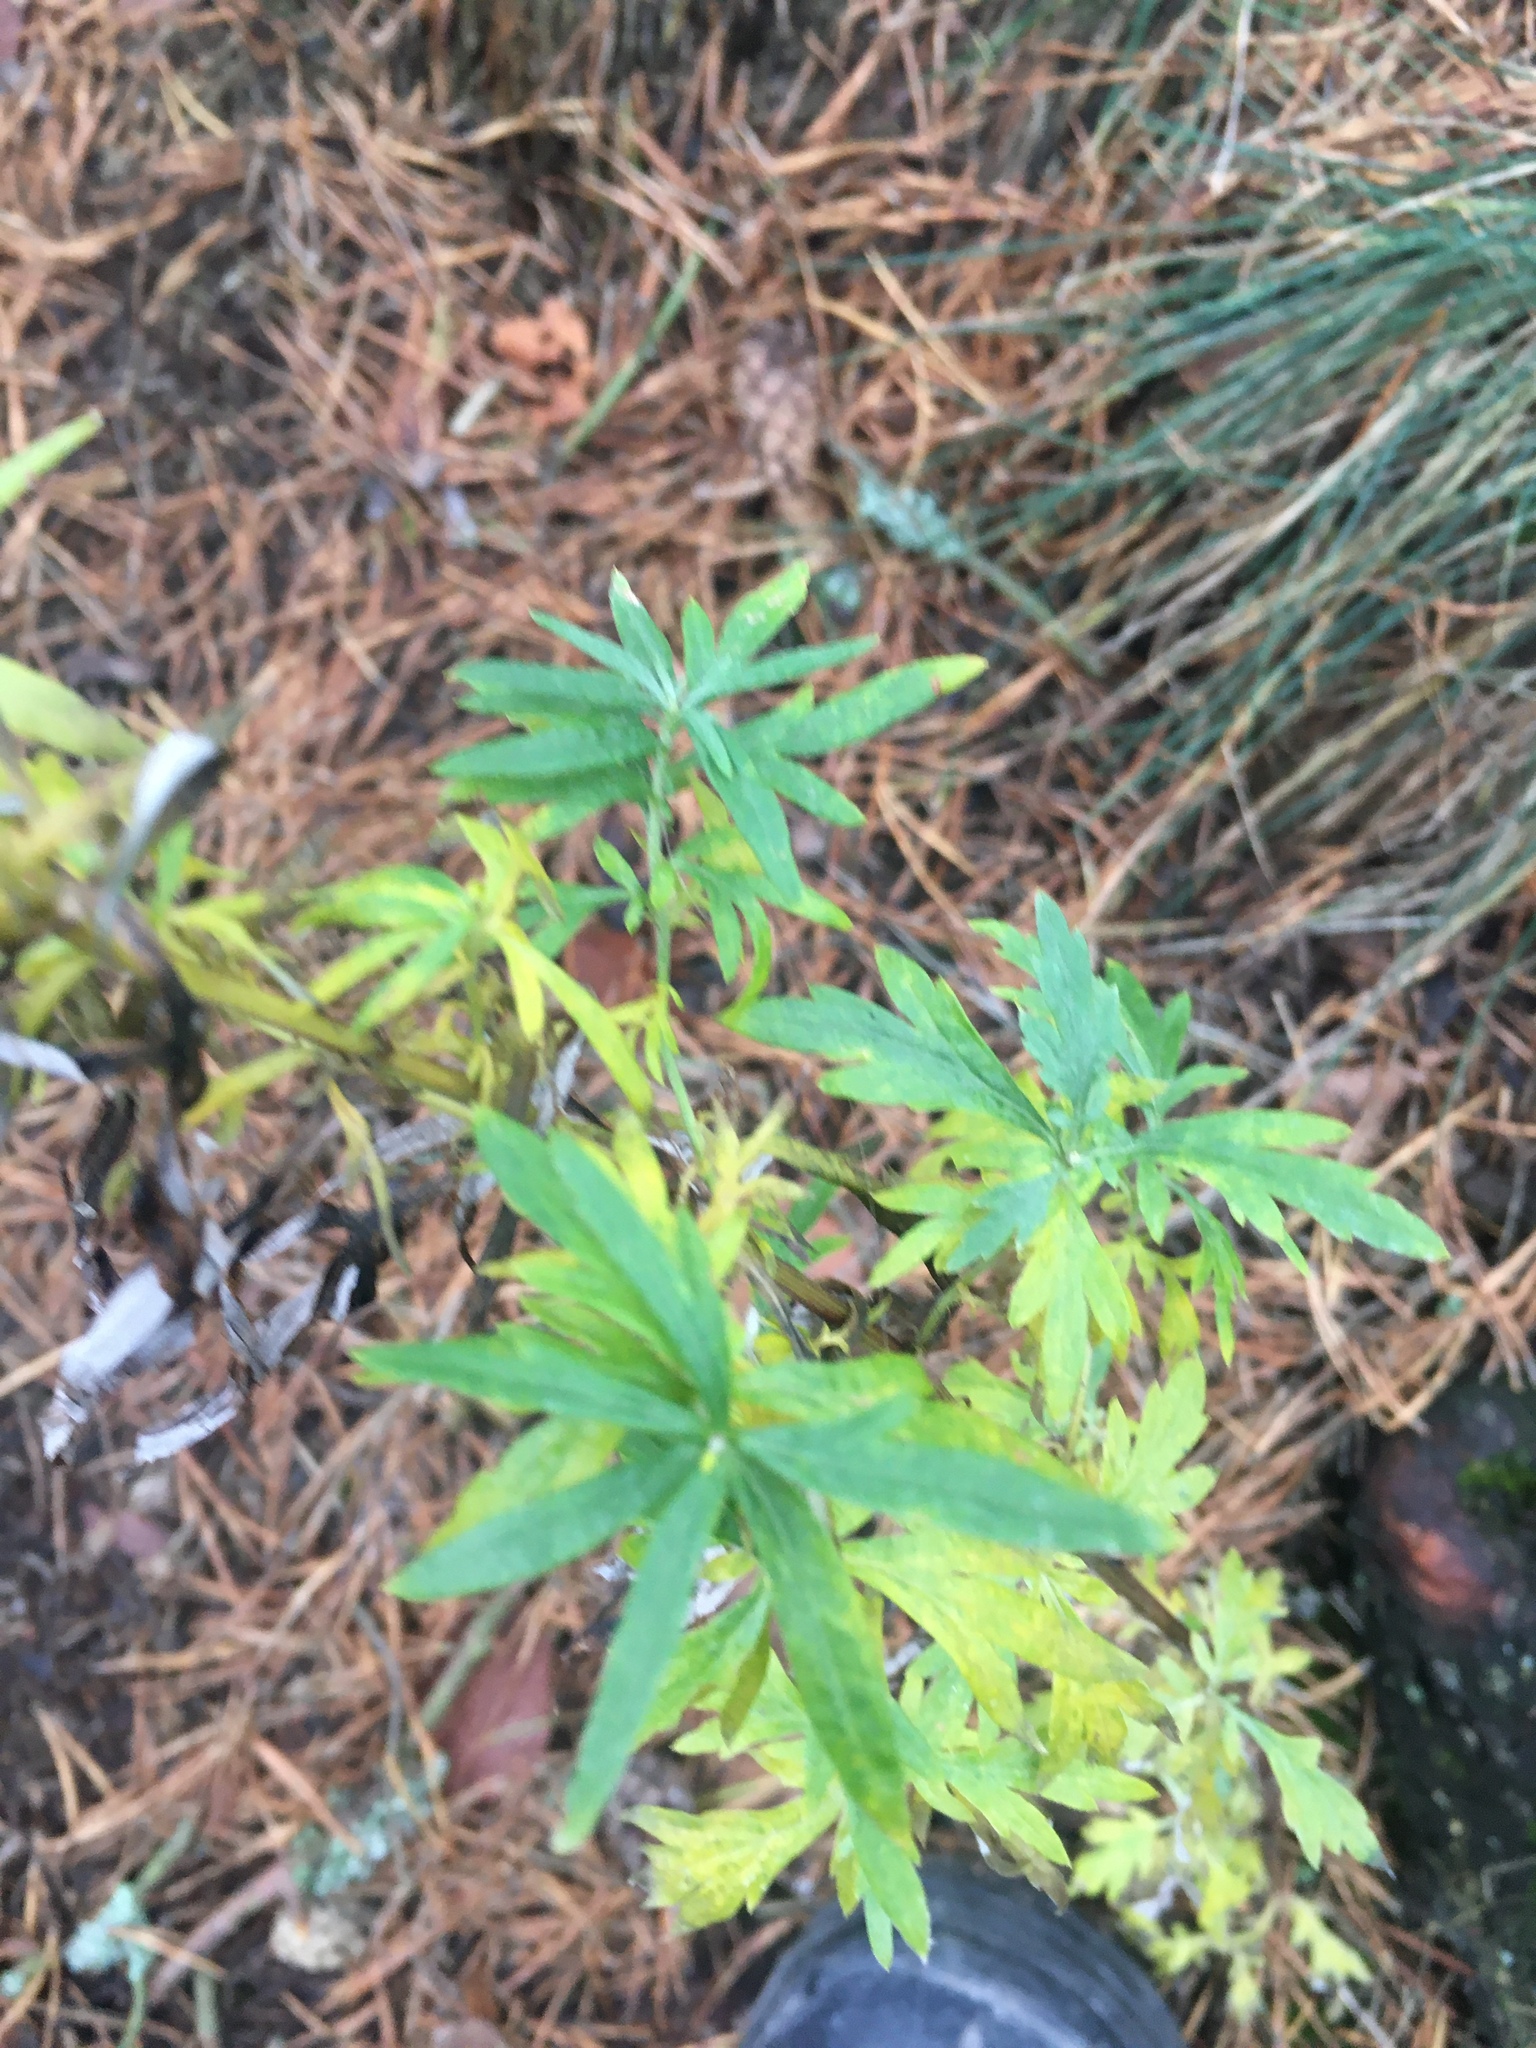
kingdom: Plantae
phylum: Tracheophyta
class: Magnoliopsida
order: Asterales
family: Asteraceae
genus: Artemisia
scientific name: Artemisia vulgaris
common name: Mugwort
